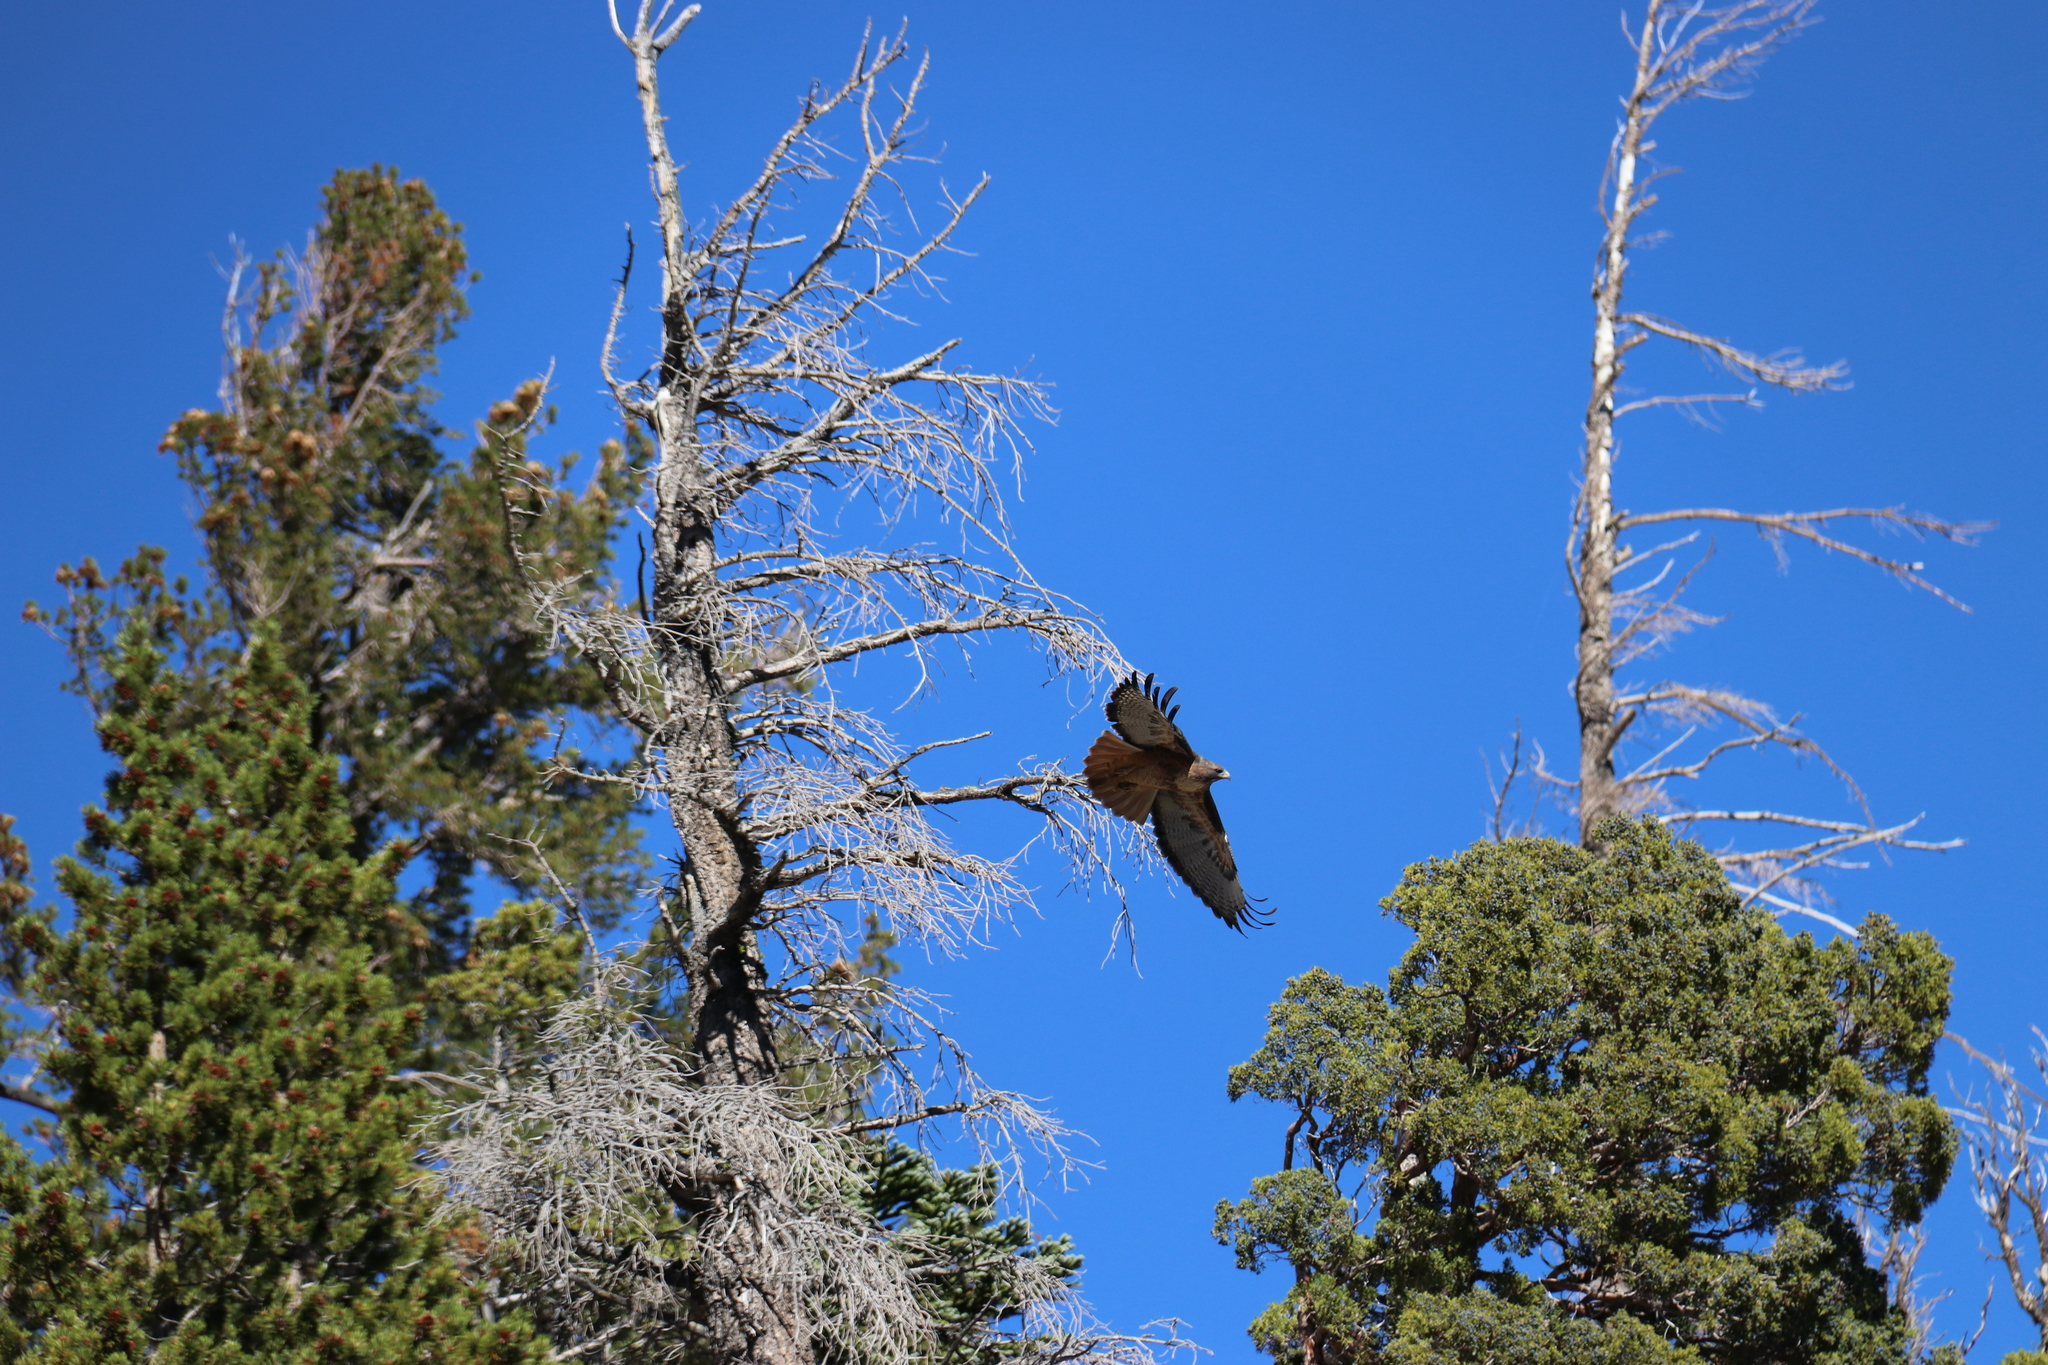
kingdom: Animalia
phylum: Chordata
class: Aves
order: Accipitriformes
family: Accipitridae
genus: Buteo
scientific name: Buteo jamaicensis
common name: Red-tailed hawk
